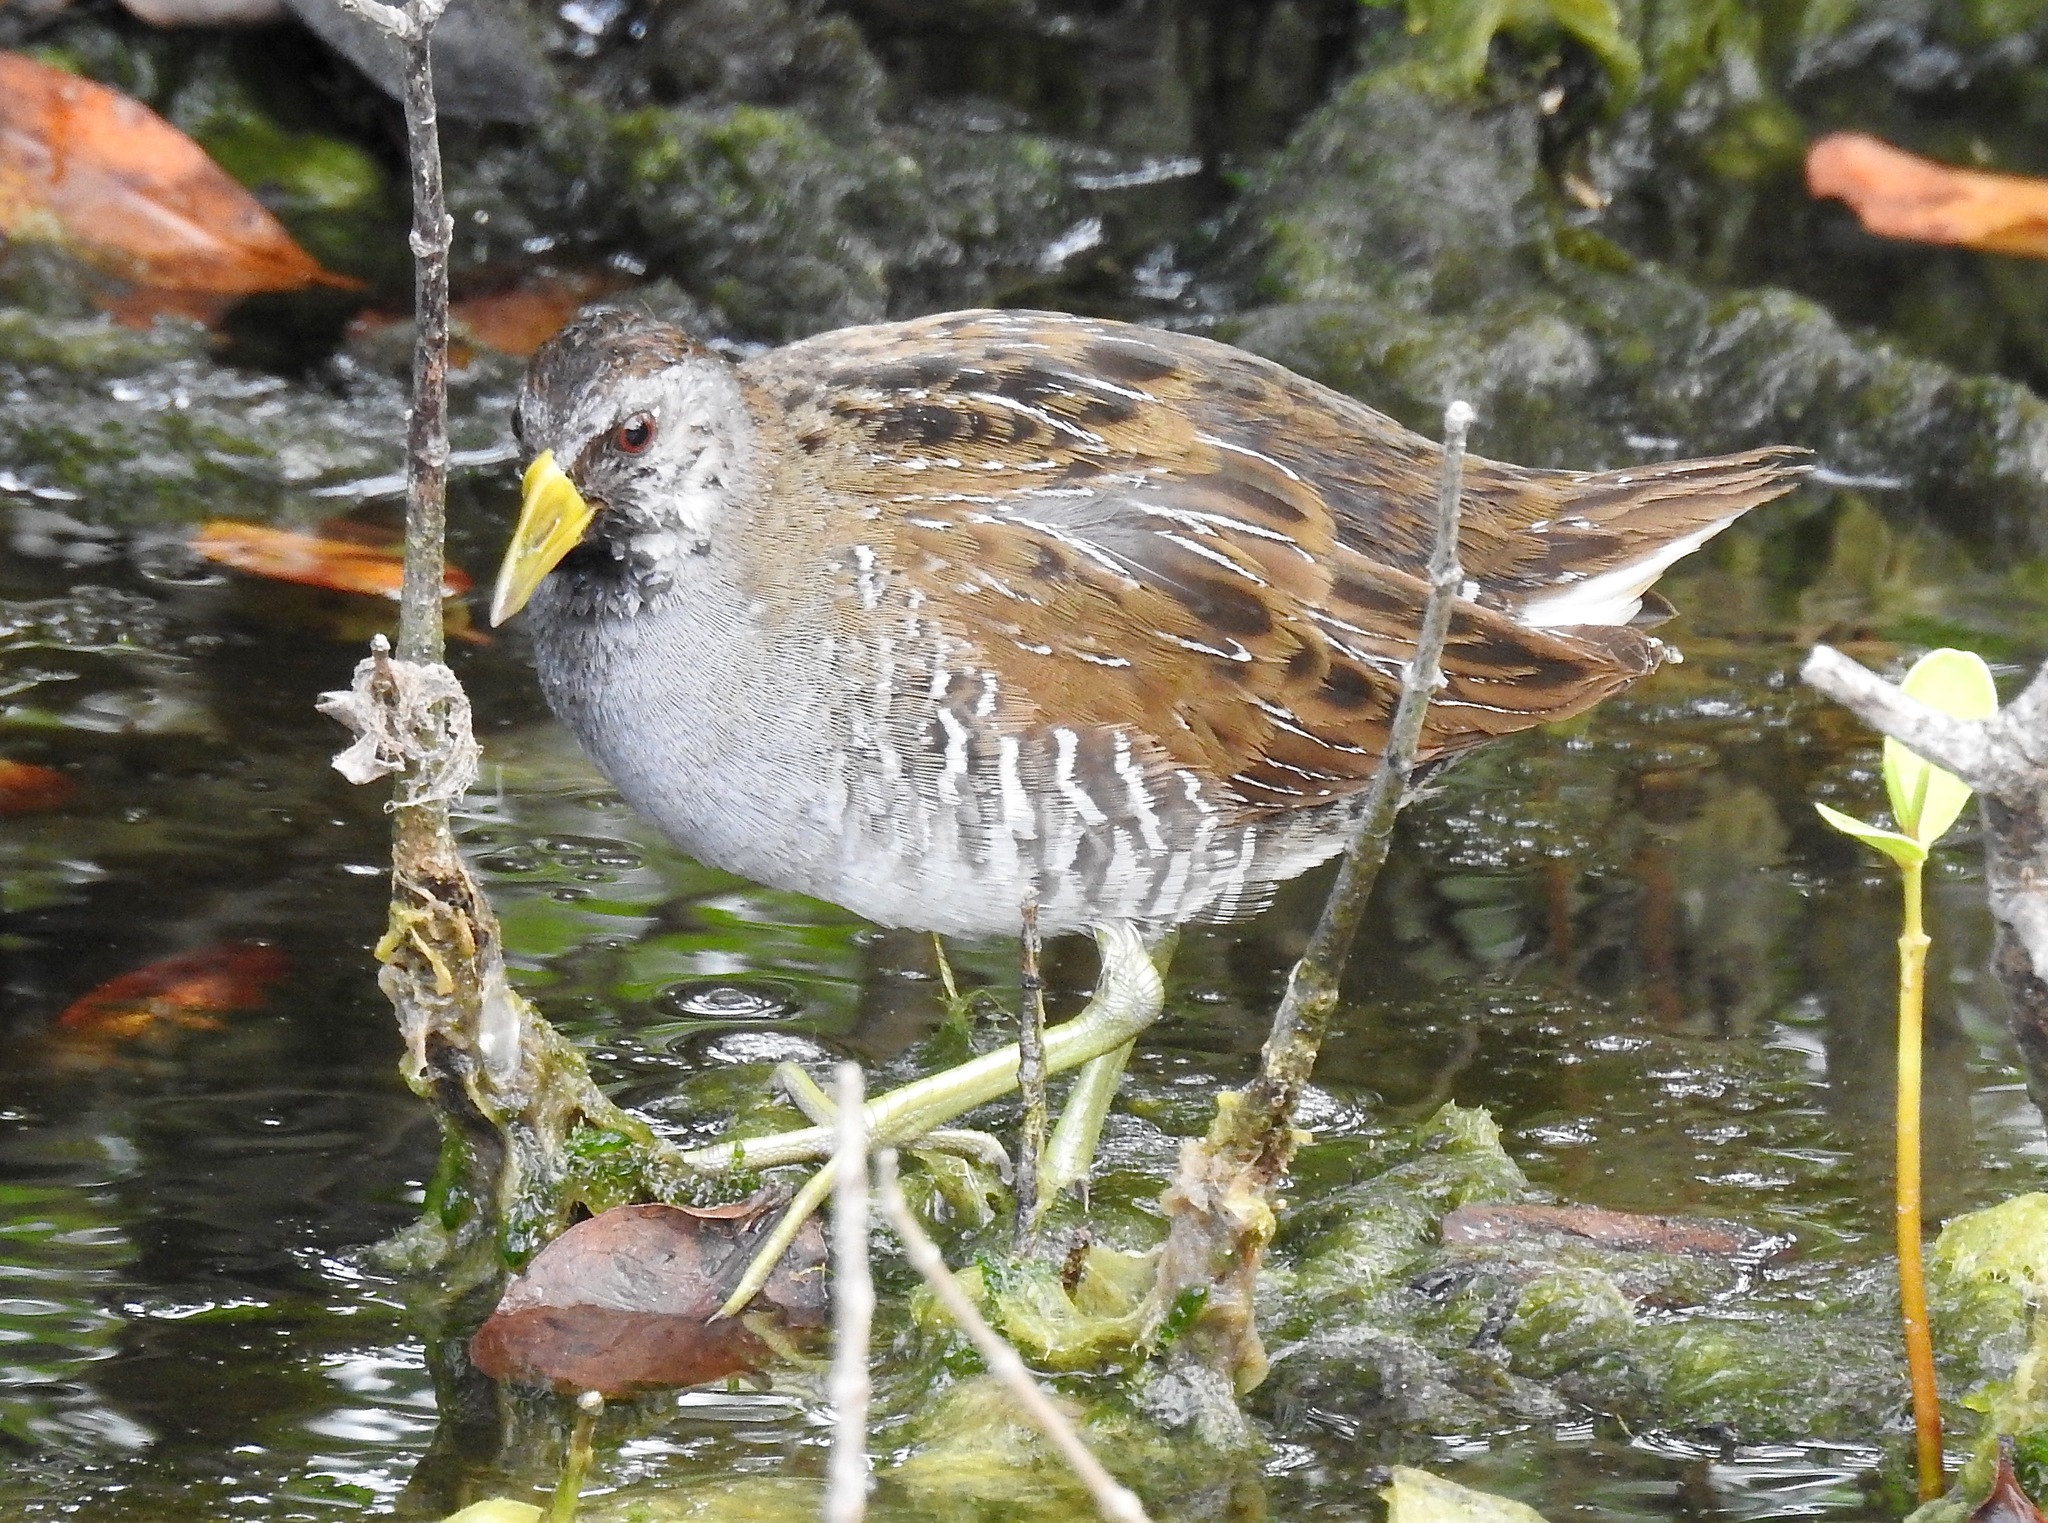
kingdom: Animalia
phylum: Chordata
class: Aves
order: Gruiformes
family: Rallidae
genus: Porzana
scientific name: Porzana carolina
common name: Sora
